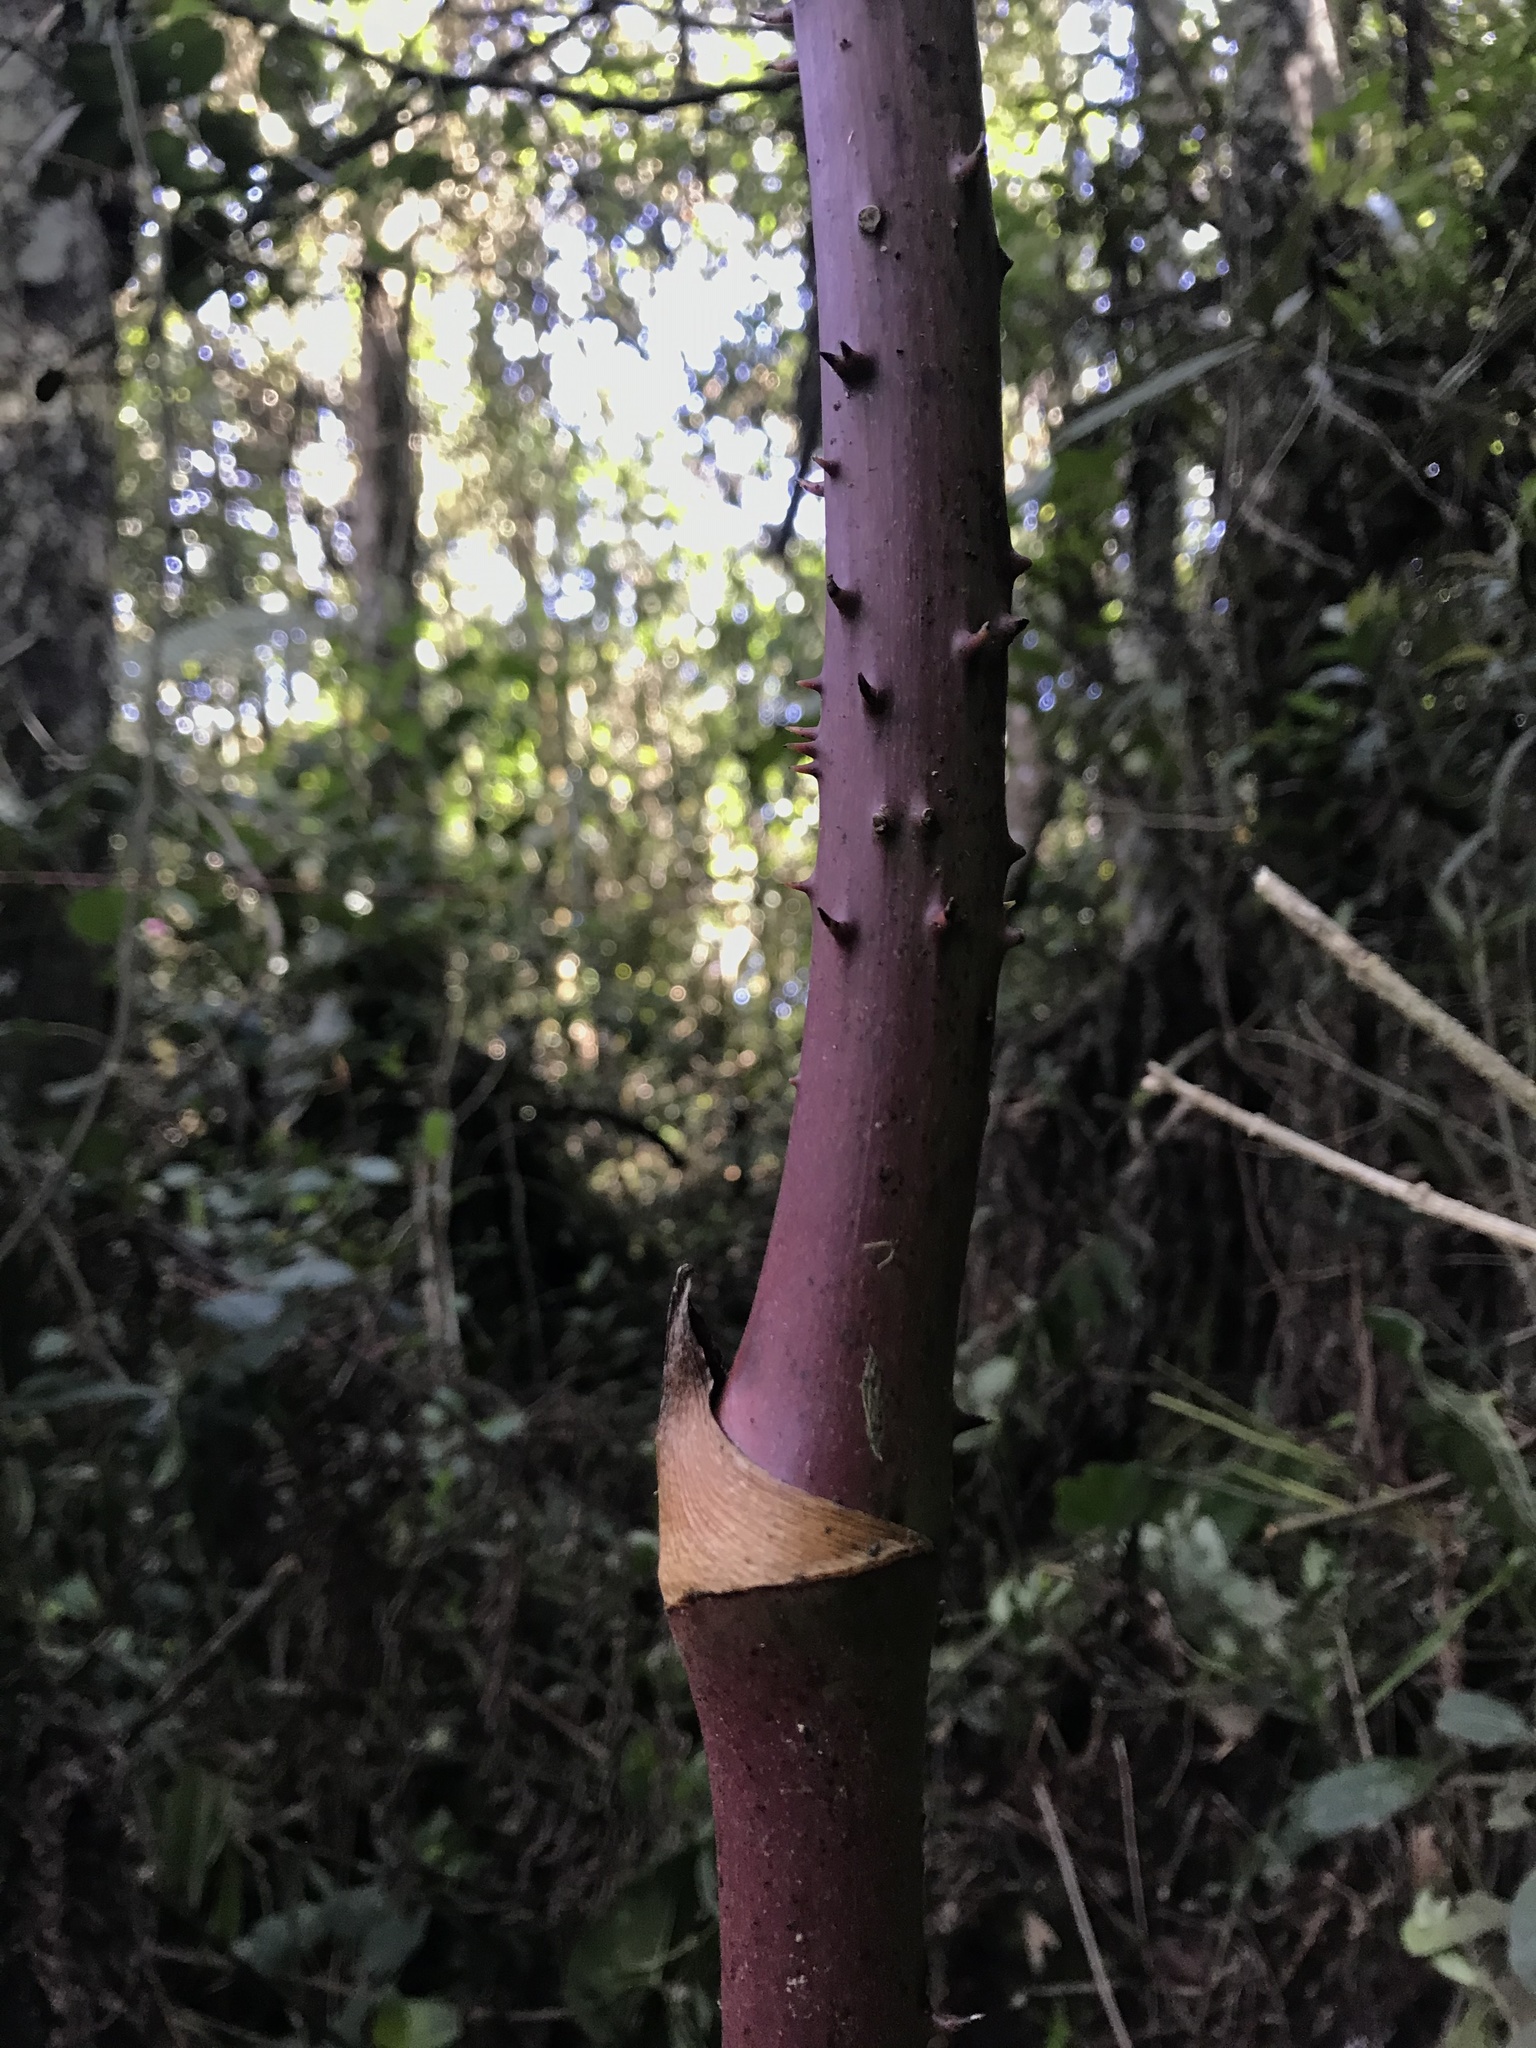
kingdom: Plantae
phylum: Tracheophyta
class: Liliopsida
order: Liliales
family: Smilacaceae
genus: Smilax
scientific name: Smilax domingensis
